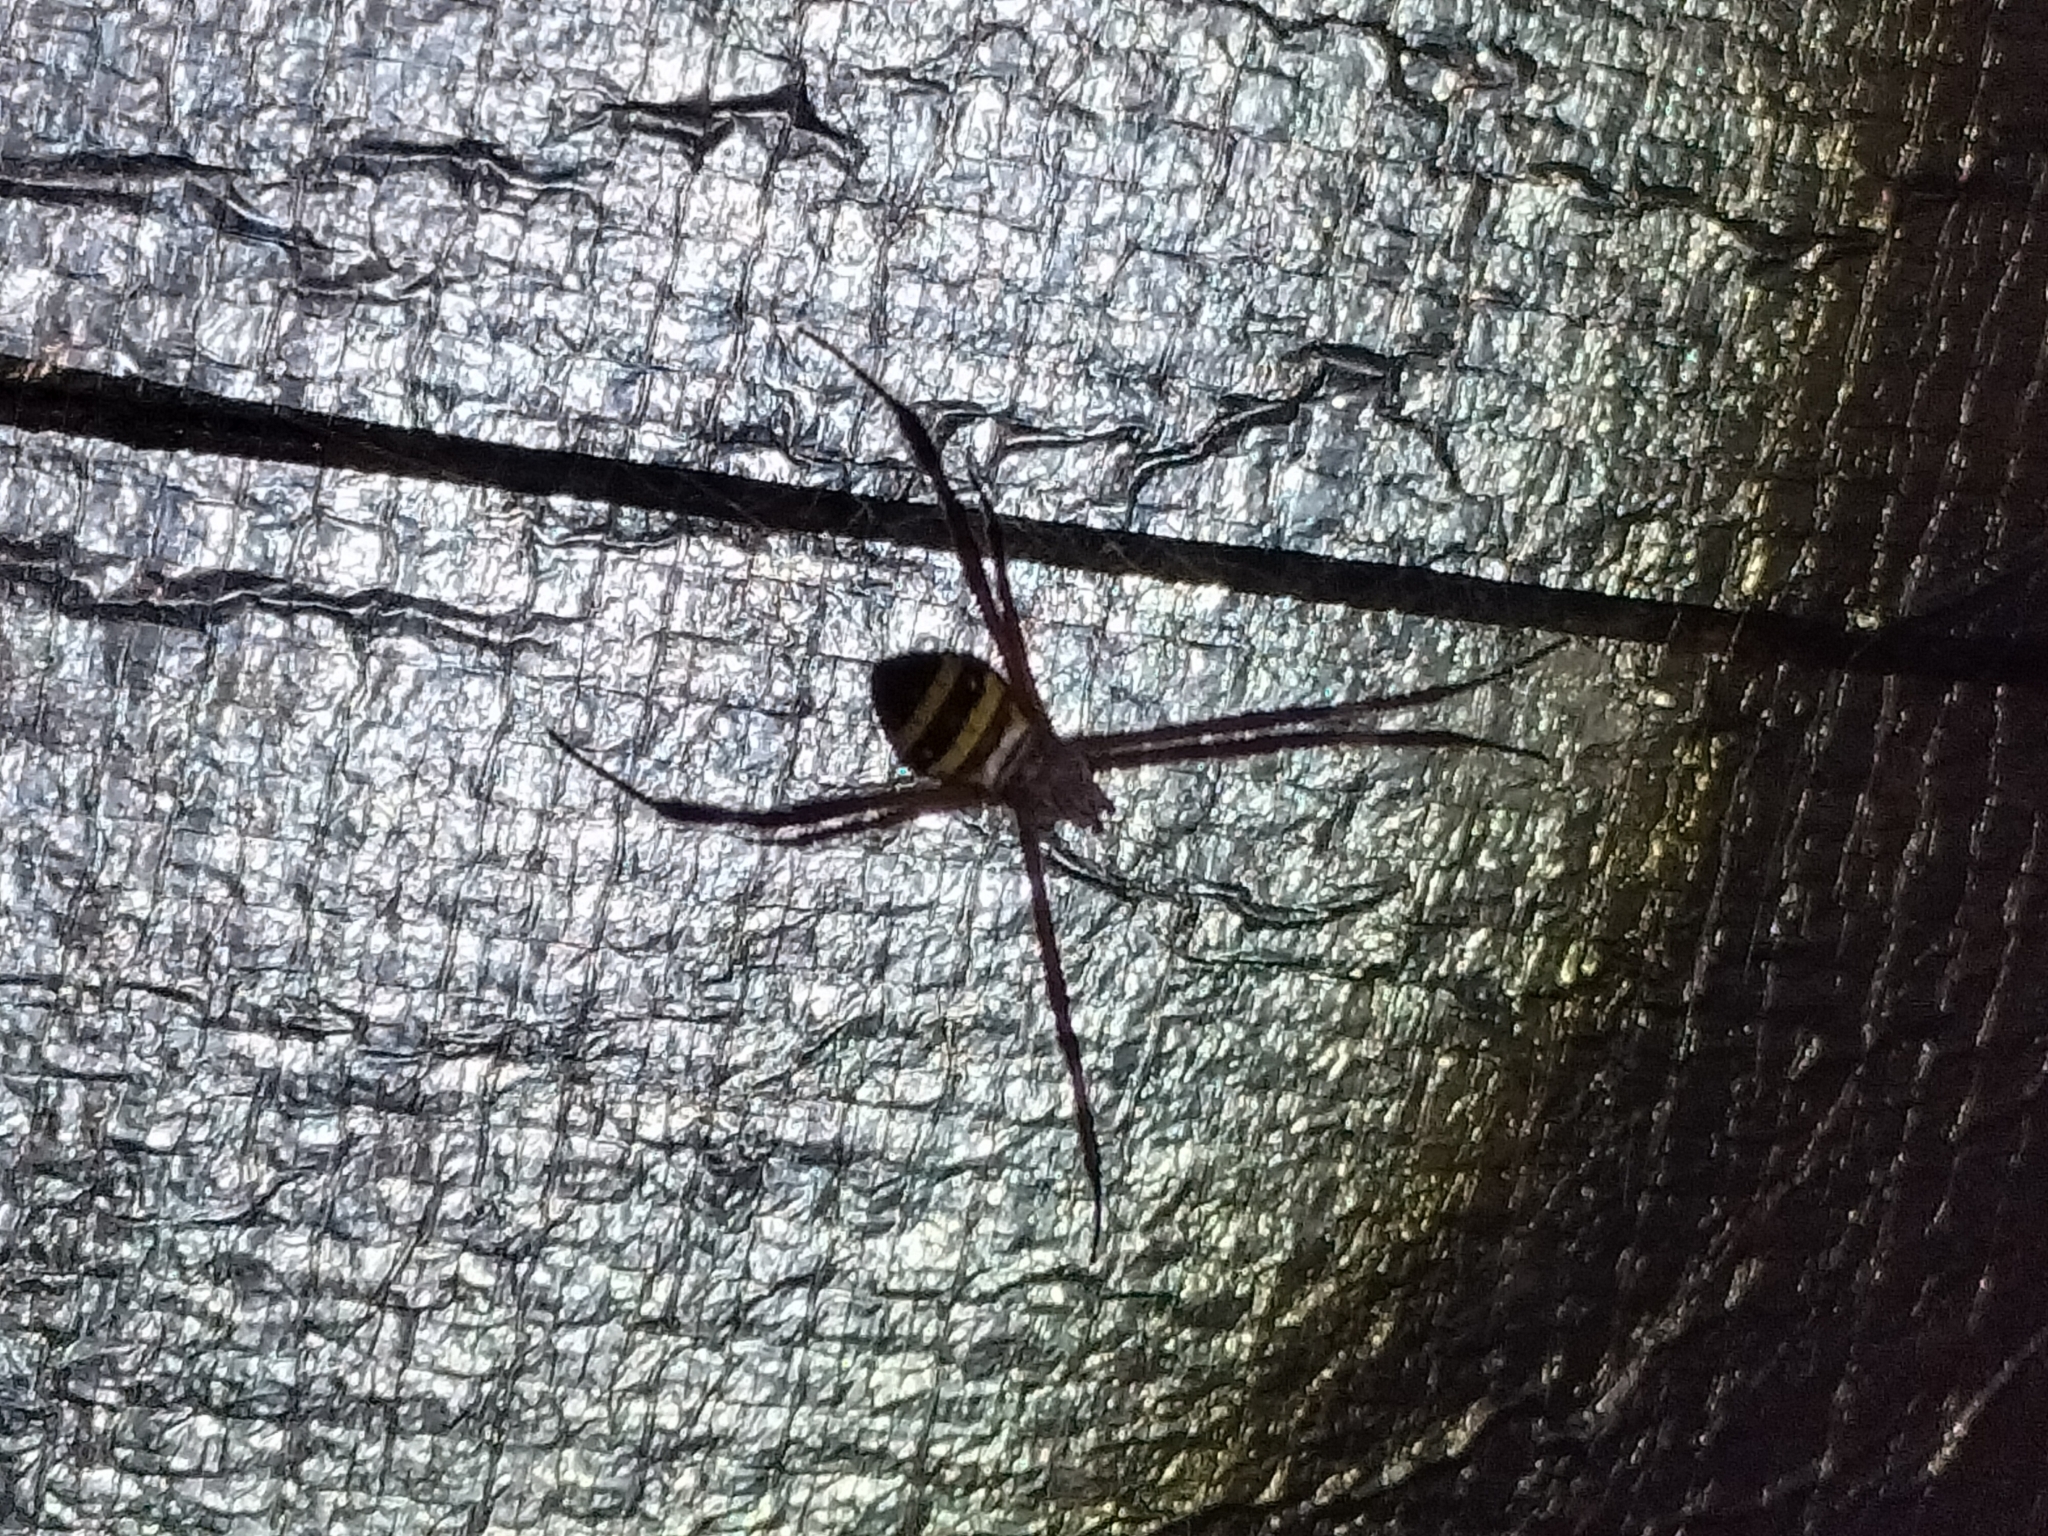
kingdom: Animalia
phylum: Arthropoda
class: Arachnida
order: Araneae
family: Araneidae
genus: Argiope
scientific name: Argiope aetherea
